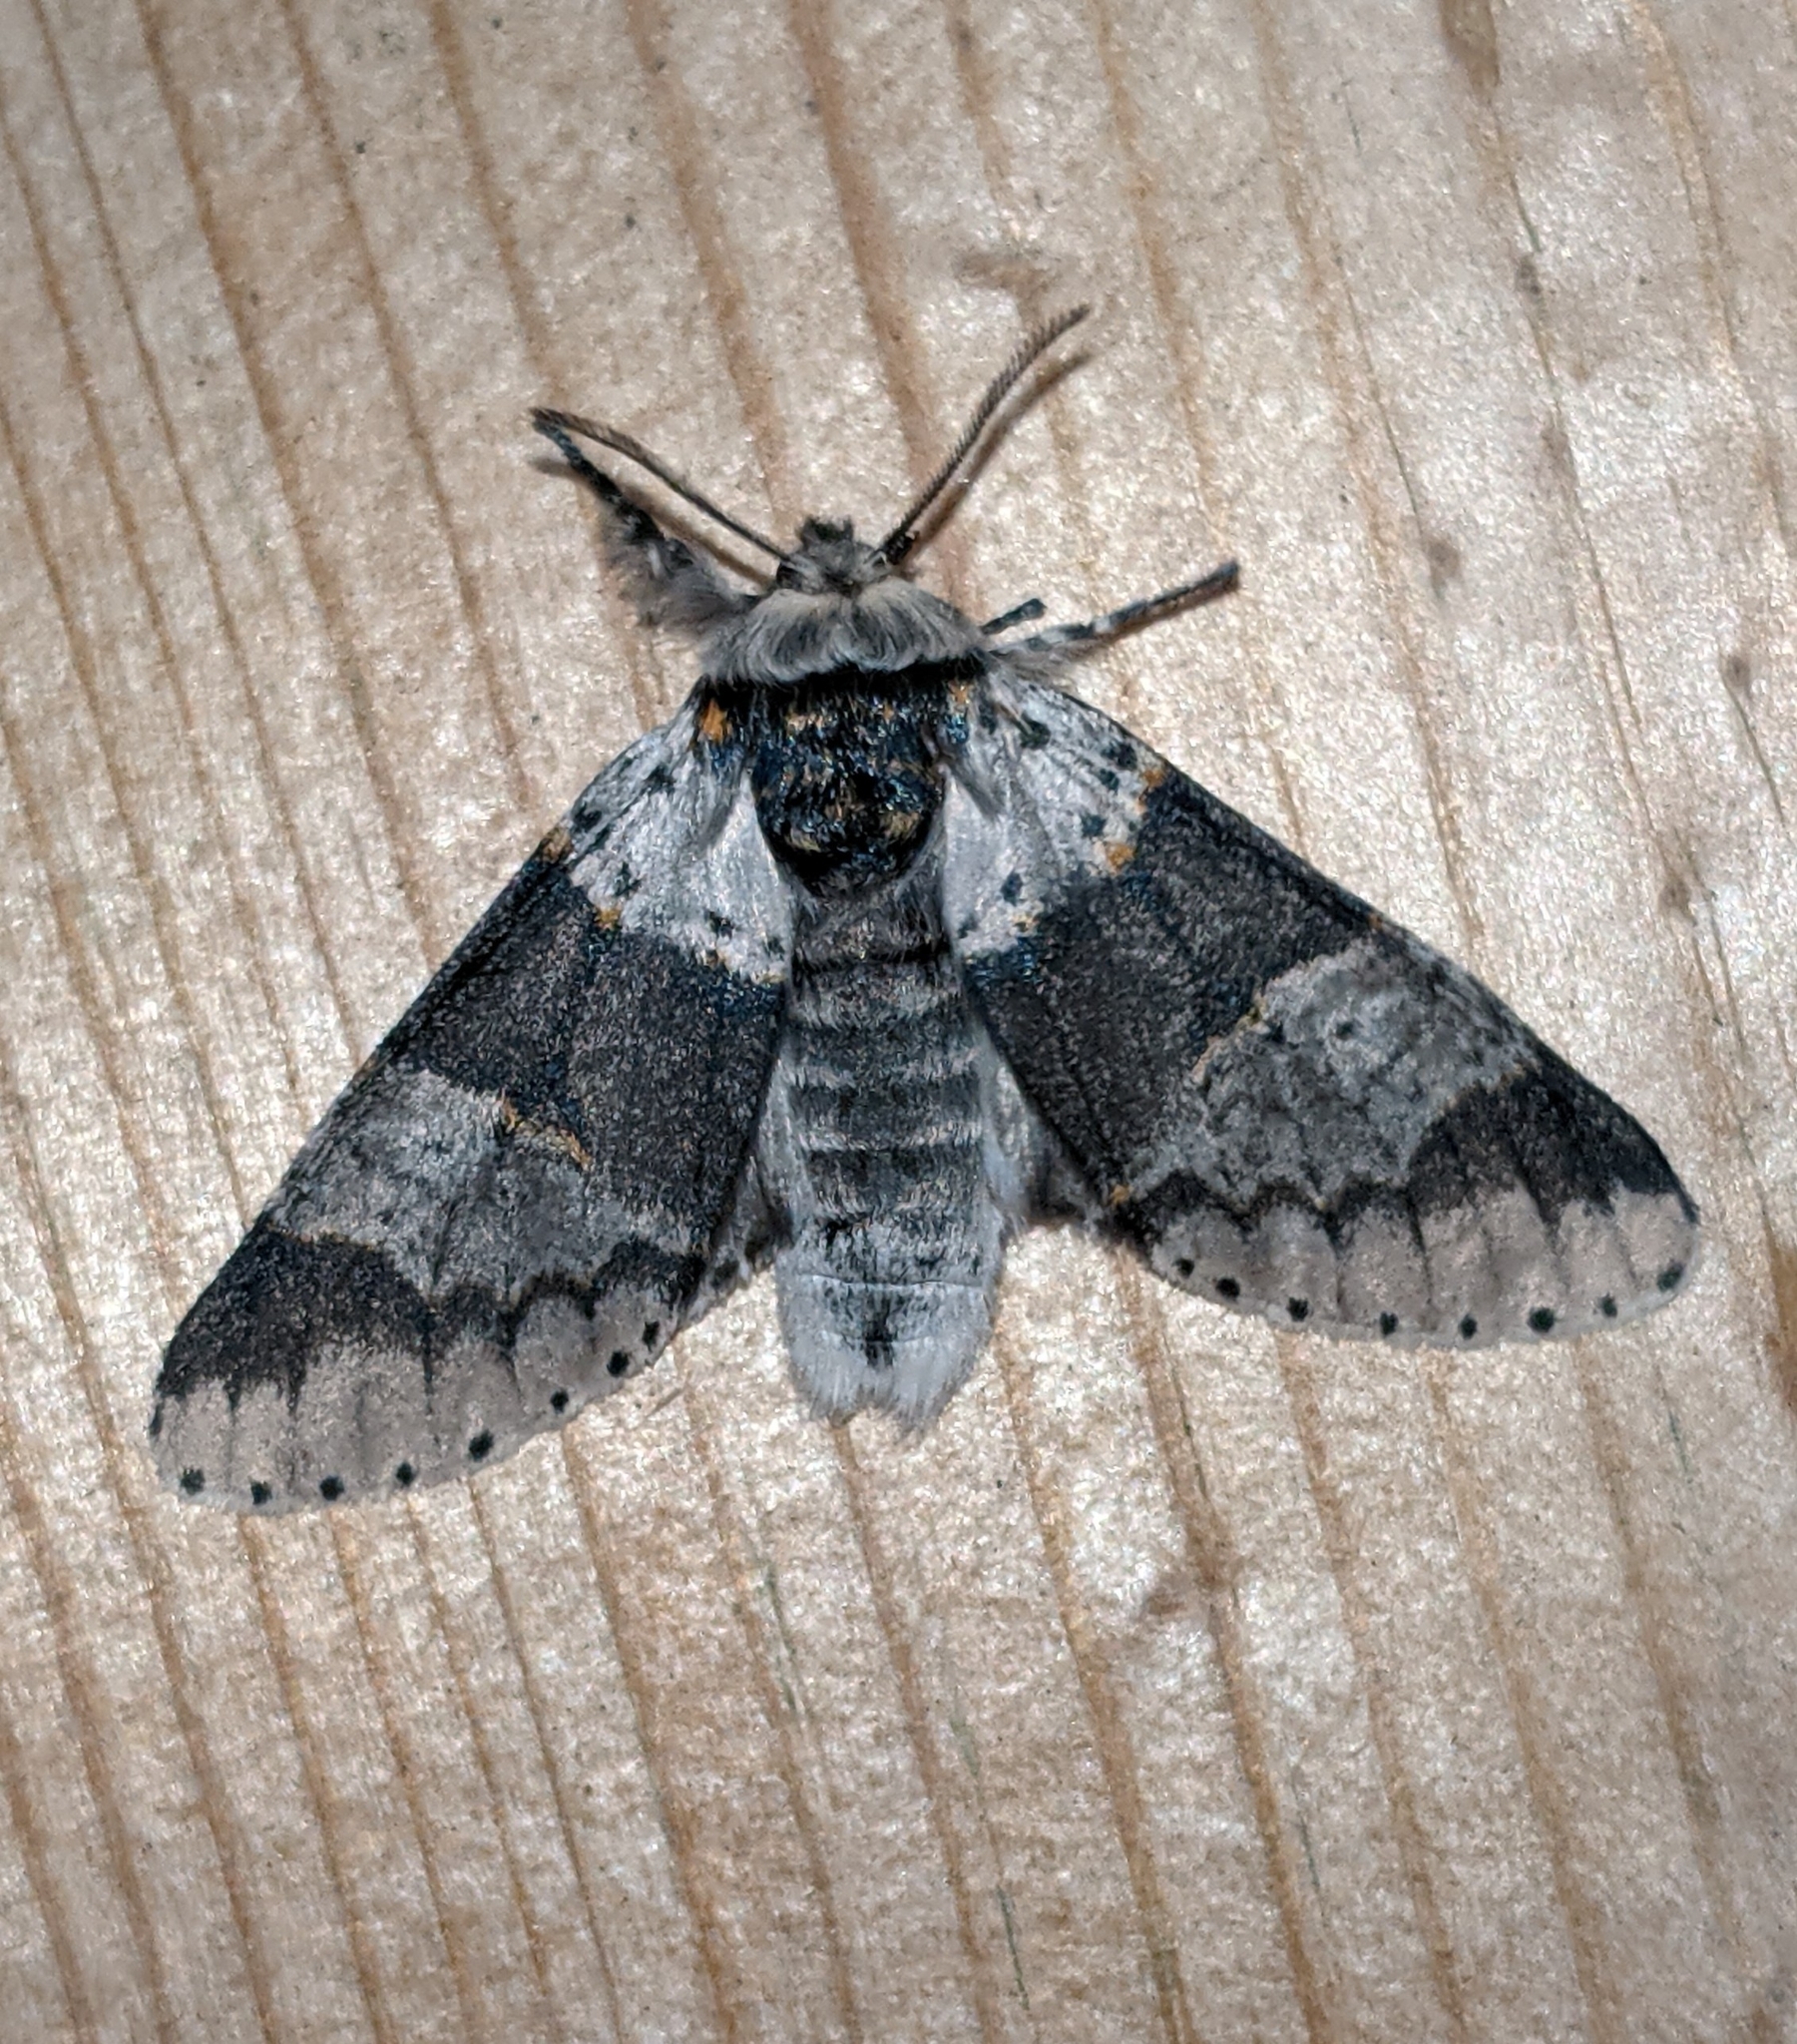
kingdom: Animalia
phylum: Arthropoda
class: Insecta
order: Lepidoptera
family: Notodontidae
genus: Furcula
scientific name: Furcula occidentalis
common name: Western furcula moth
